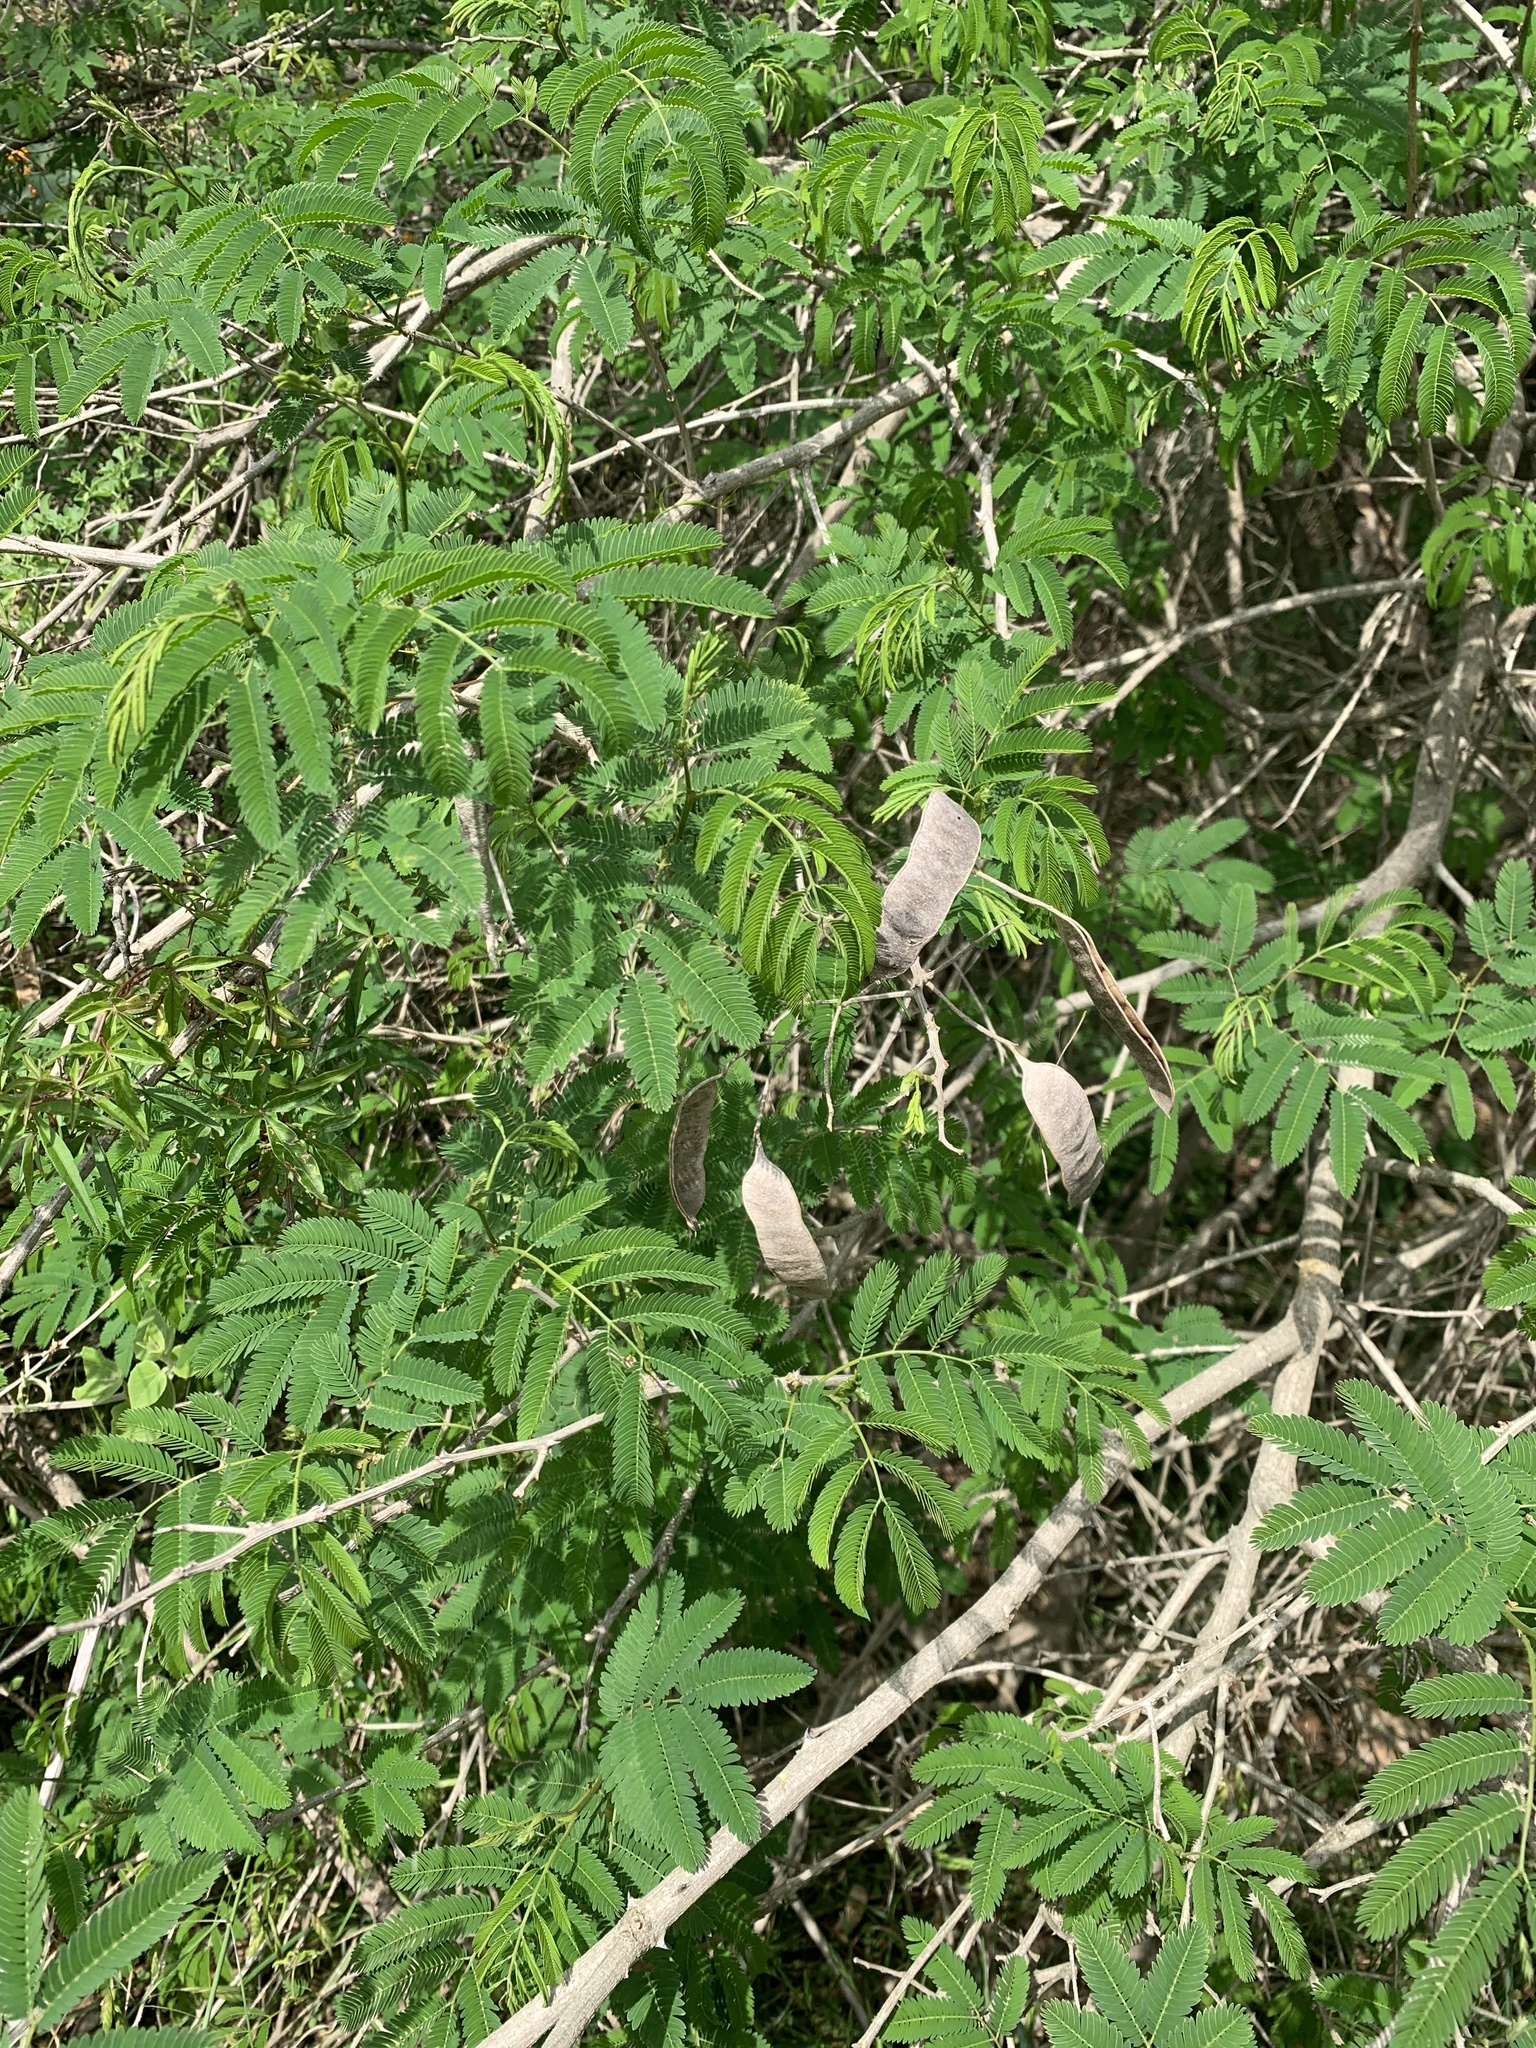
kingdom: Plantae
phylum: Tracheophyta
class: Magnoliopsida
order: Fabales
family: Fabaceae
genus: Senegalia
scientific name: Senegalia bonariensis
